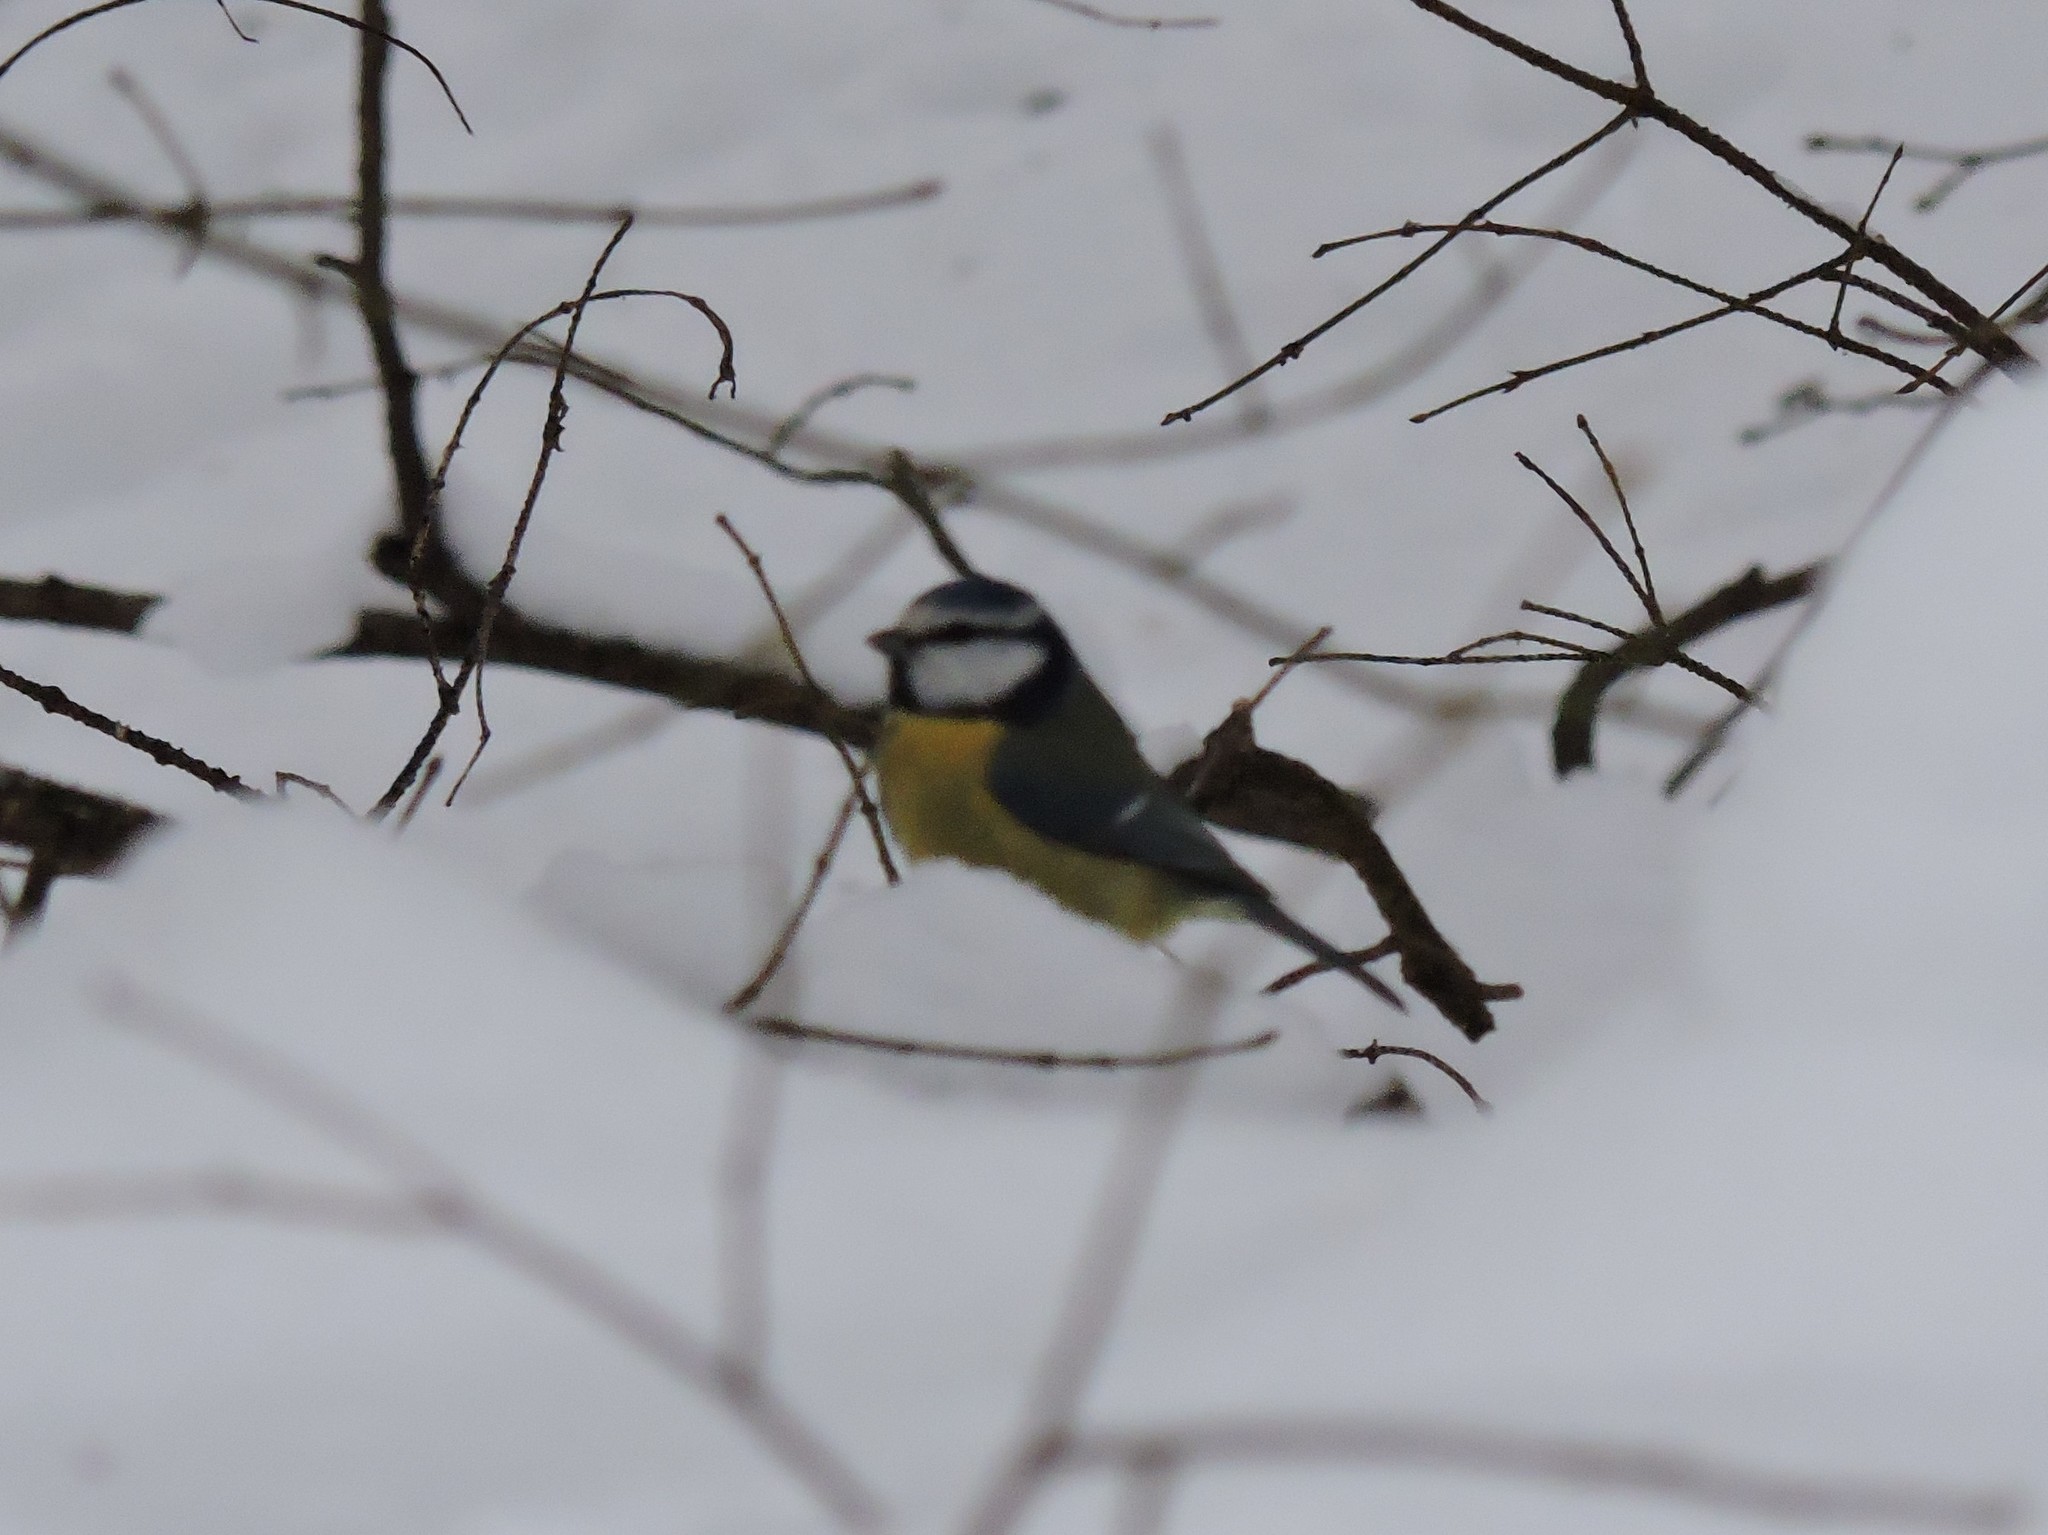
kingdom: Animalia
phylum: Chordata
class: Aves
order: Passeriformes
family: Paridae
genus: Cyanistes
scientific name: Cyanistes caeruleus
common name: Eurasian blue tit
